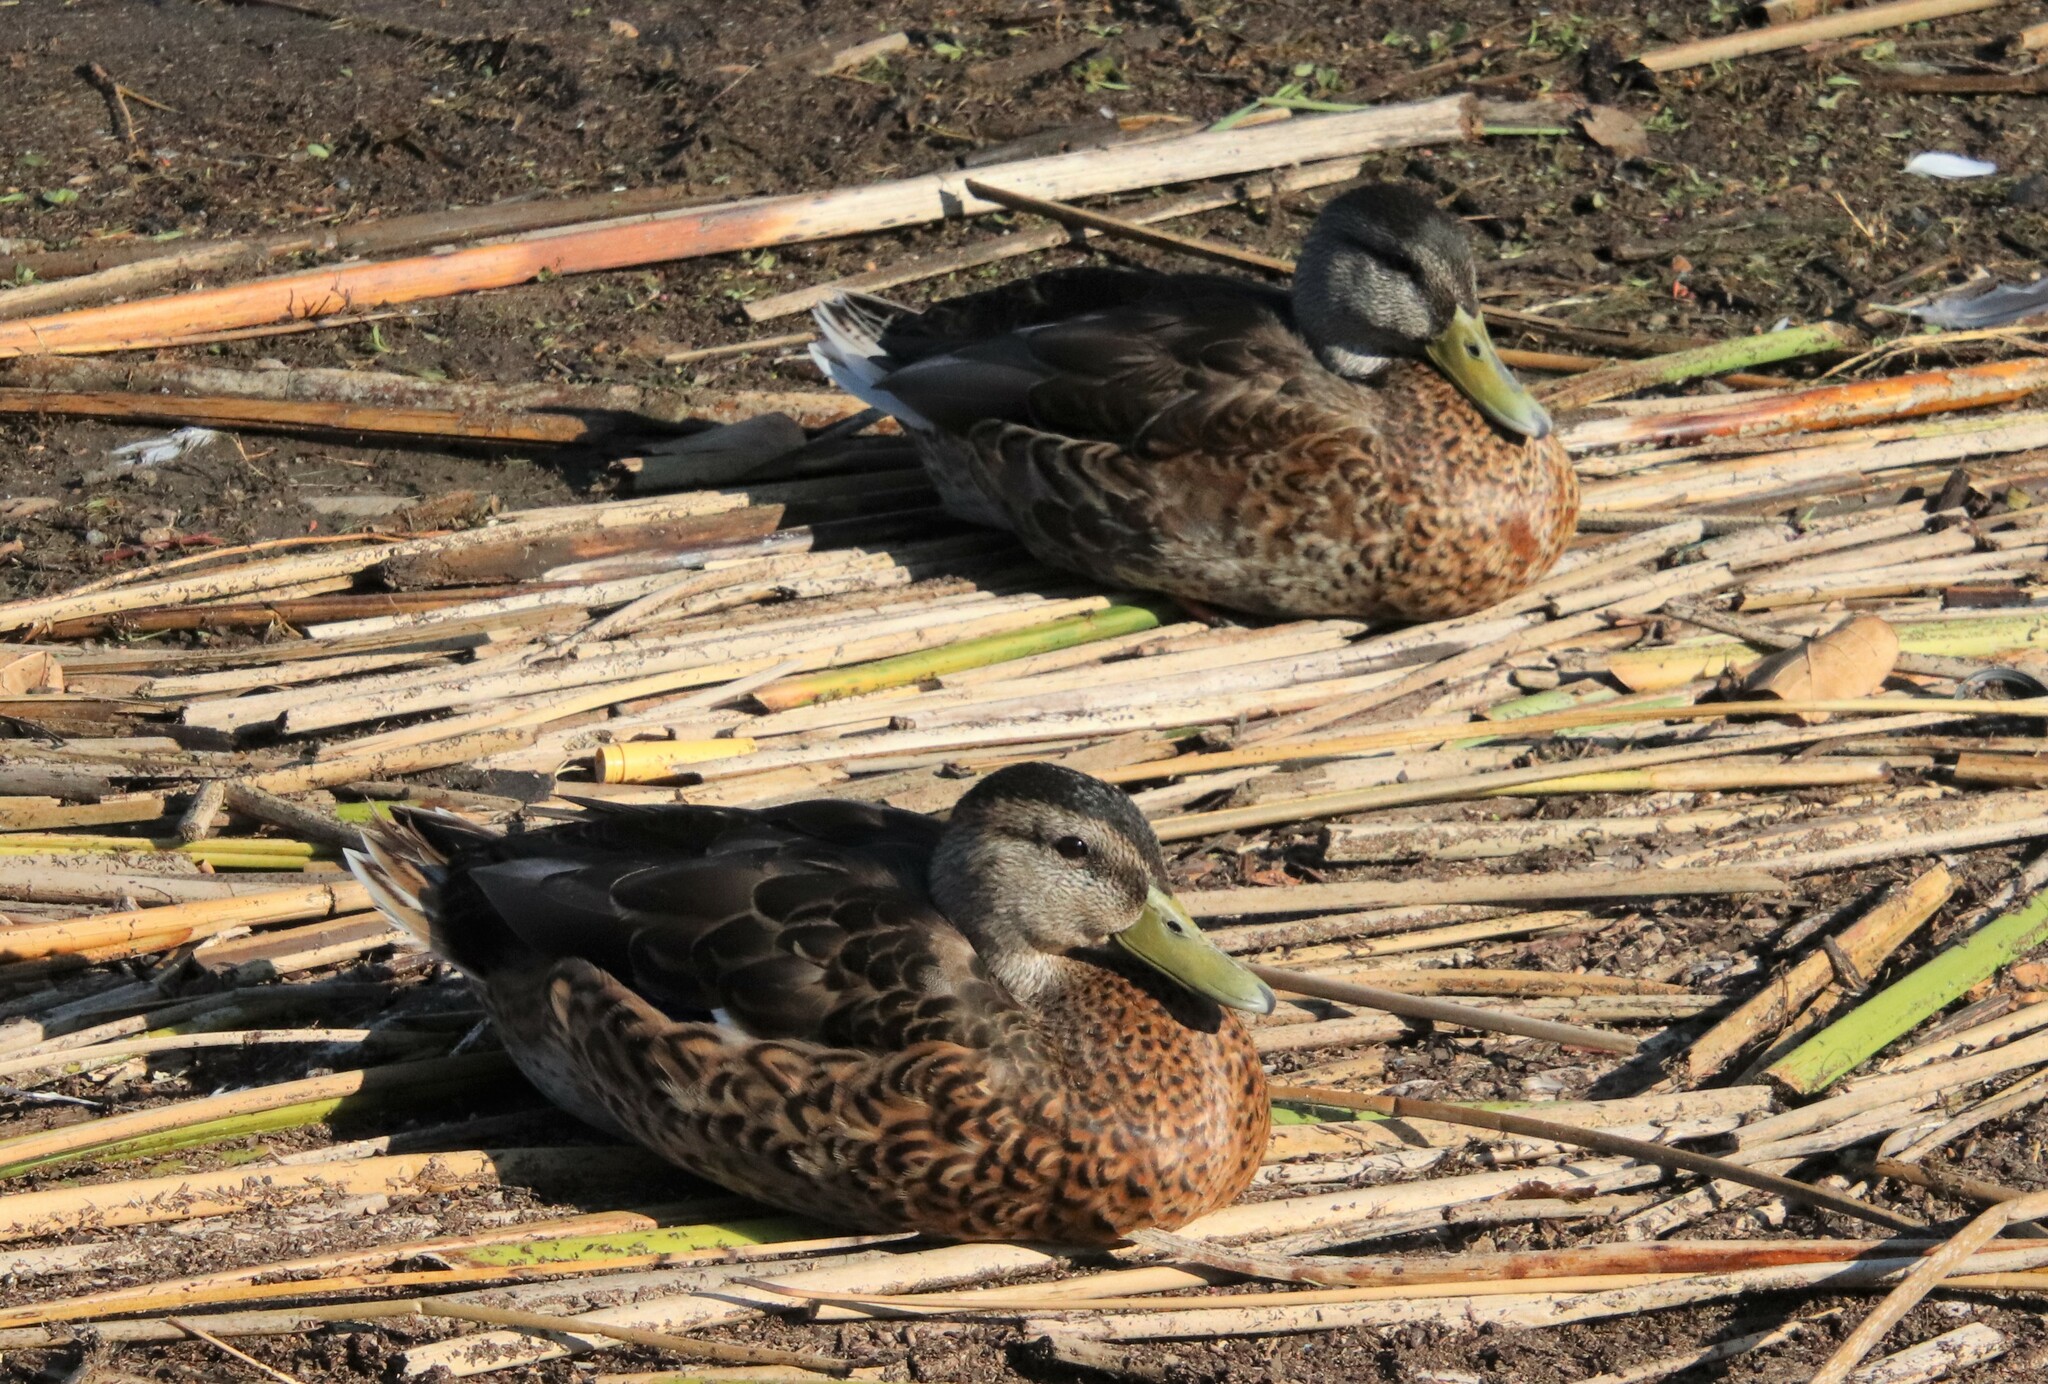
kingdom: Animalia
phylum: Chordata
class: Aves
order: Anseriformes
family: Anatidae
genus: Anas
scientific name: Anas platyrhynchos
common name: Mallard
